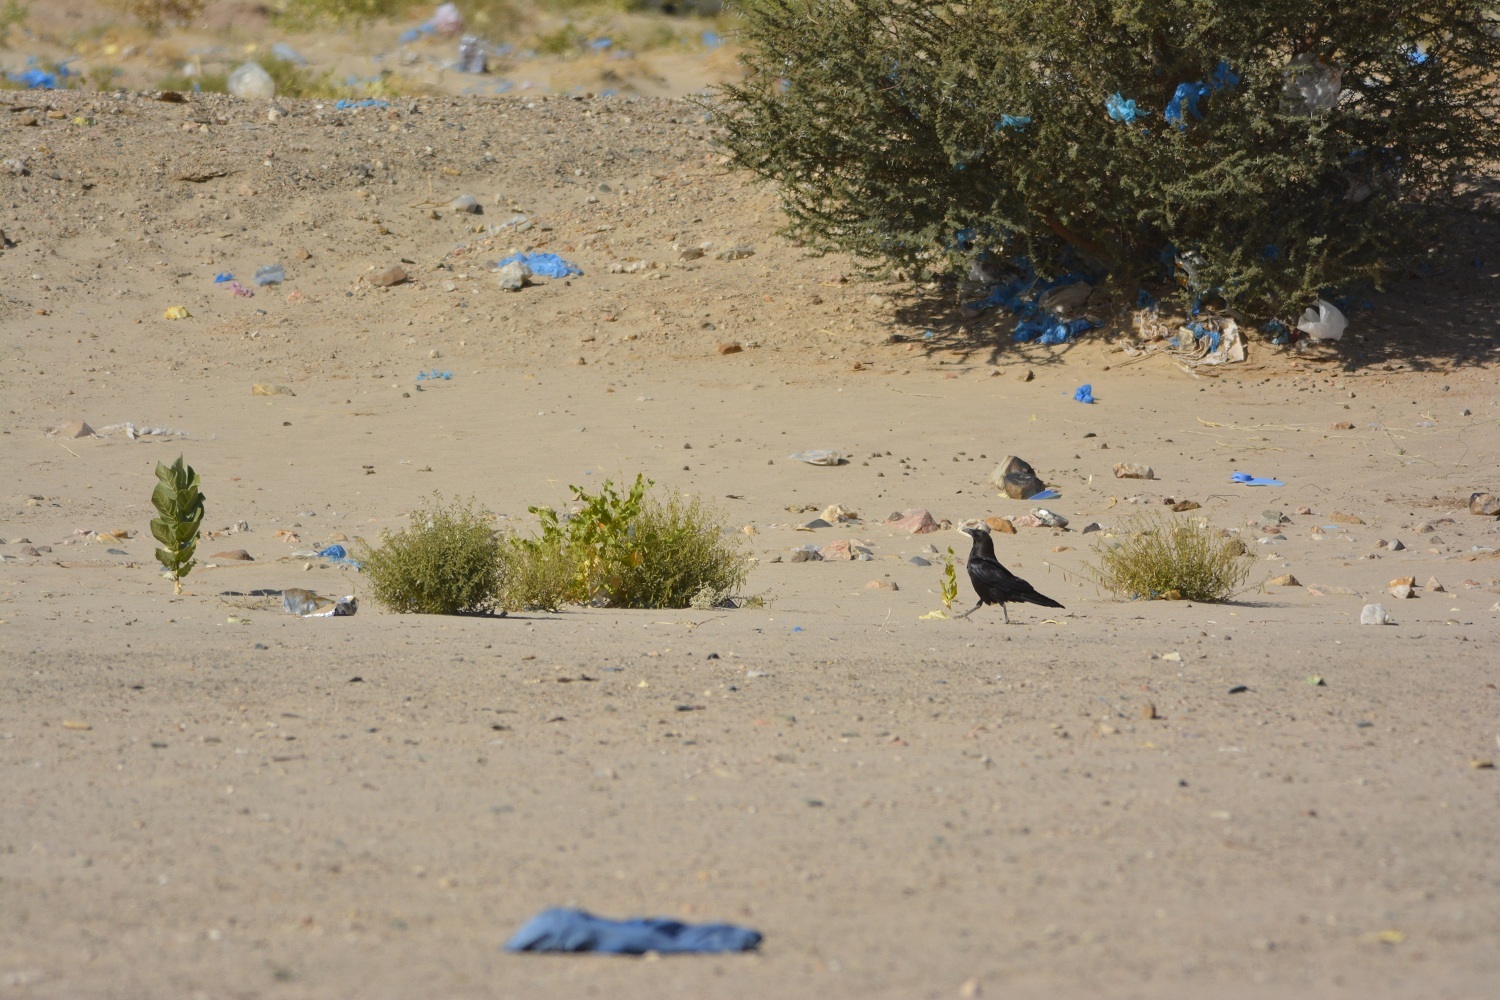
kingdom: Animalia
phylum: Chordata
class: Aves
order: Passeriformes
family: Corvidae
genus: Corvus
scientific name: Corvus ruficollis
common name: Brown-necked raven
